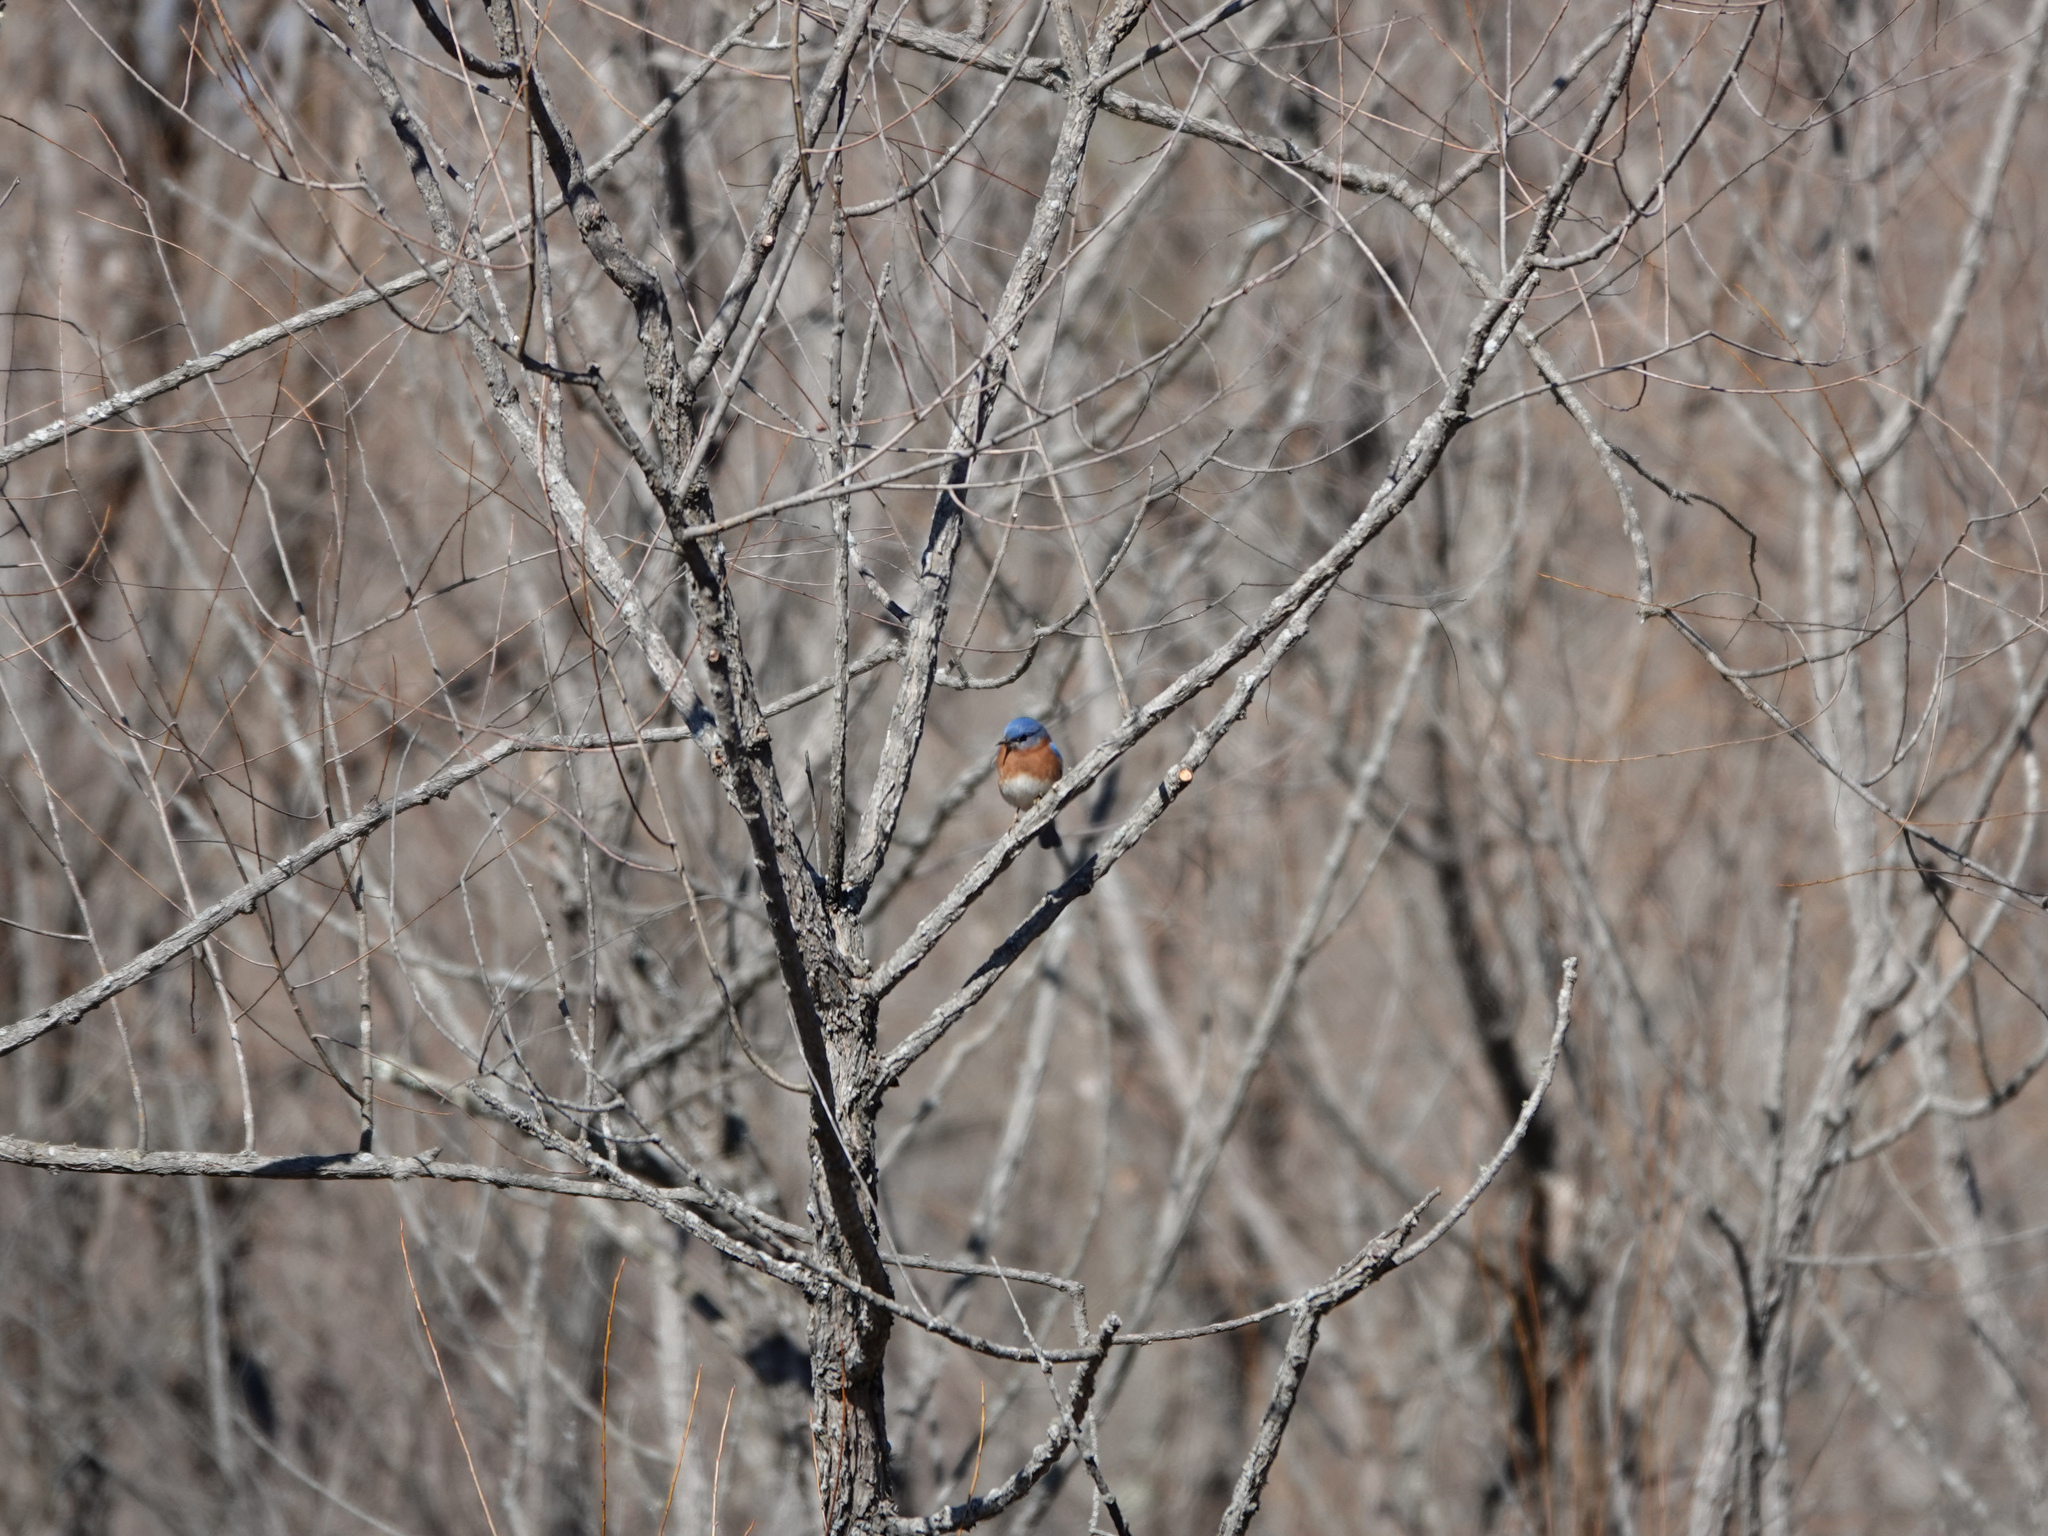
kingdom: Animalia
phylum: Chordata
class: Aves
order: Passeriformes
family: Turdidae
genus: Sialia
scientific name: Sialia sialis
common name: Eastern bluebird
